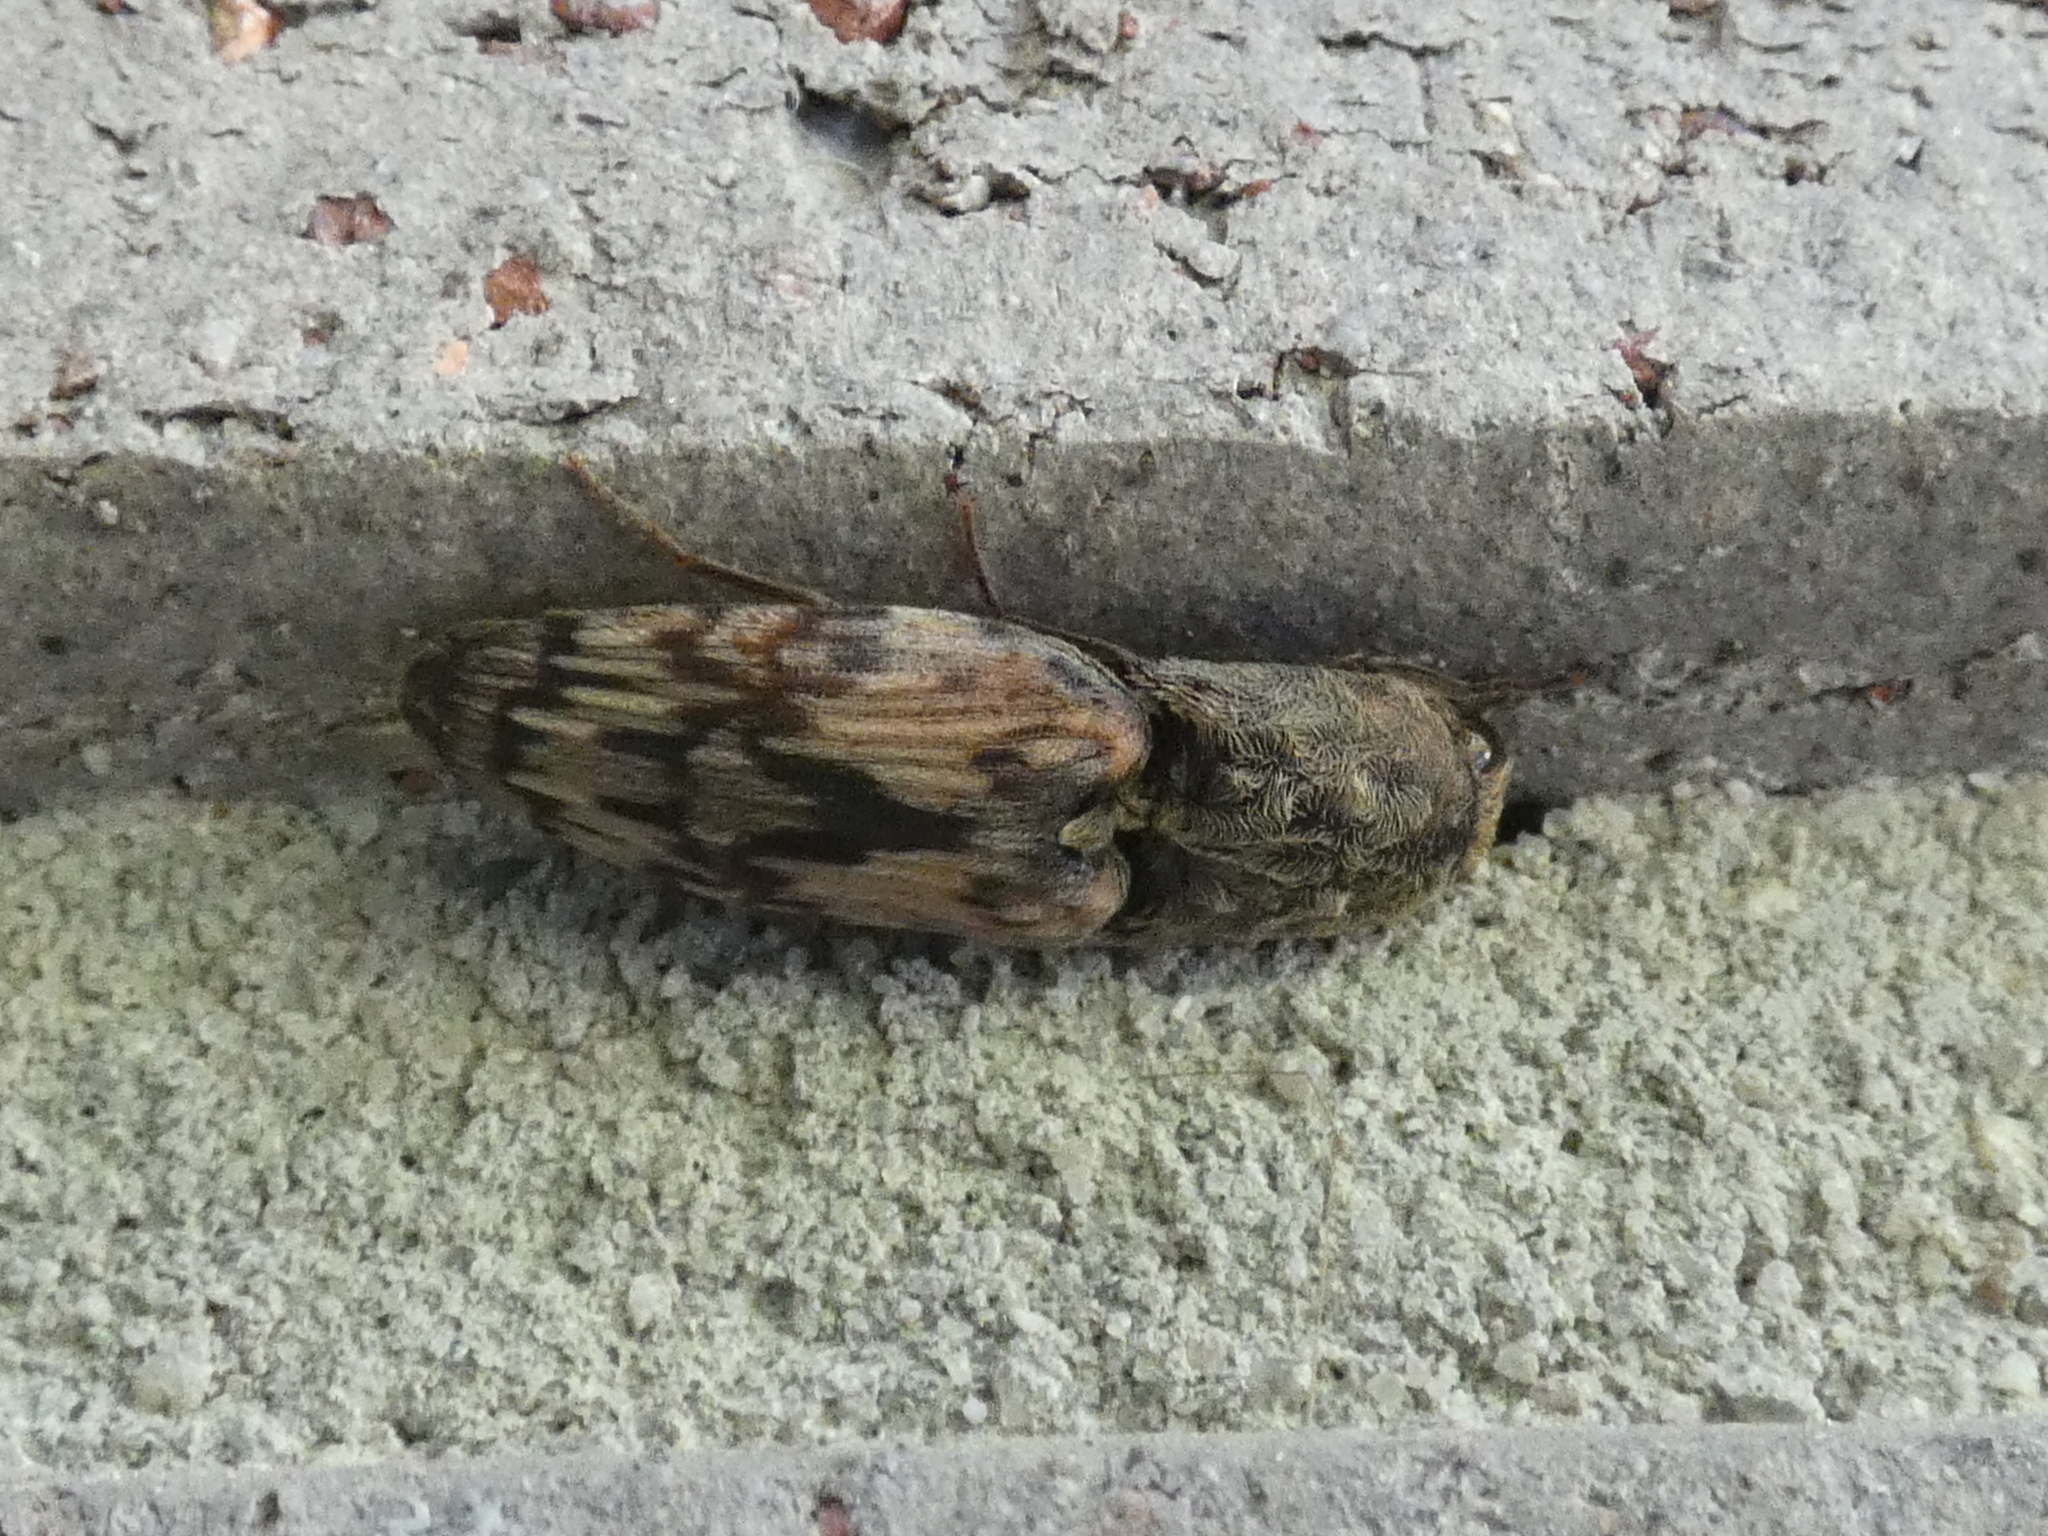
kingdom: Animalia
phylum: Arthropoda
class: Insecta
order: Coleoptera
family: Elateridae
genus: Pherhimius
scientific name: Pherhimius fascicularis
